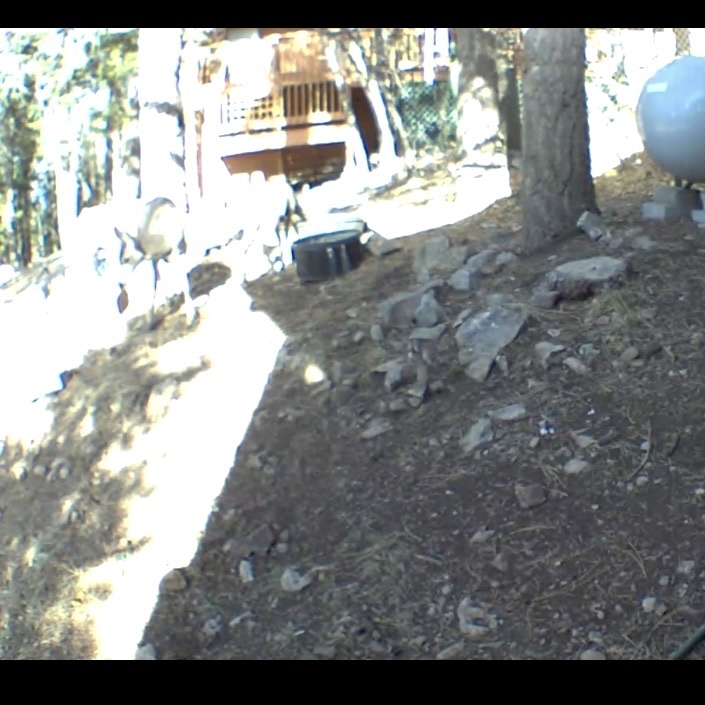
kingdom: Animalia
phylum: Chordata
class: Mammalia
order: Artiodactyla
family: Cervidae
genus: Odocoileus
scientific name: Odocoileus hemionus
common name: Mule deer
